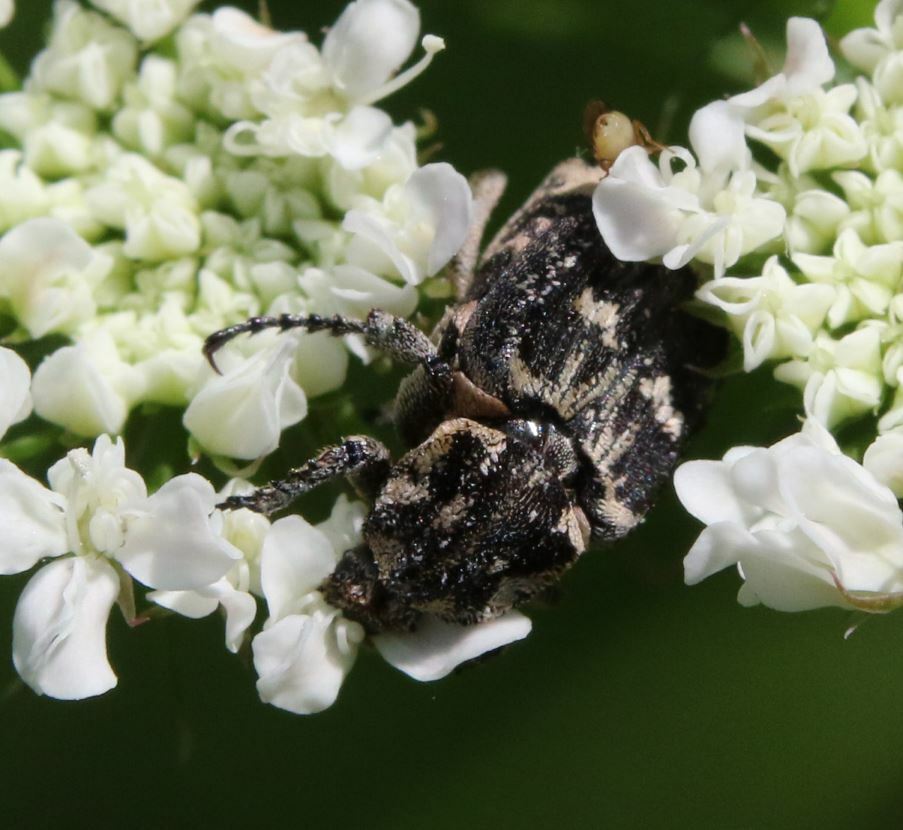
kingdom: Animalia
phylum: Arthropoda
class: Insecta
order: Coleoptera
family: Scarabaeidae
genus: Valgus
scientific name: Valgus hemipterus
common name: Bug flower chafer
